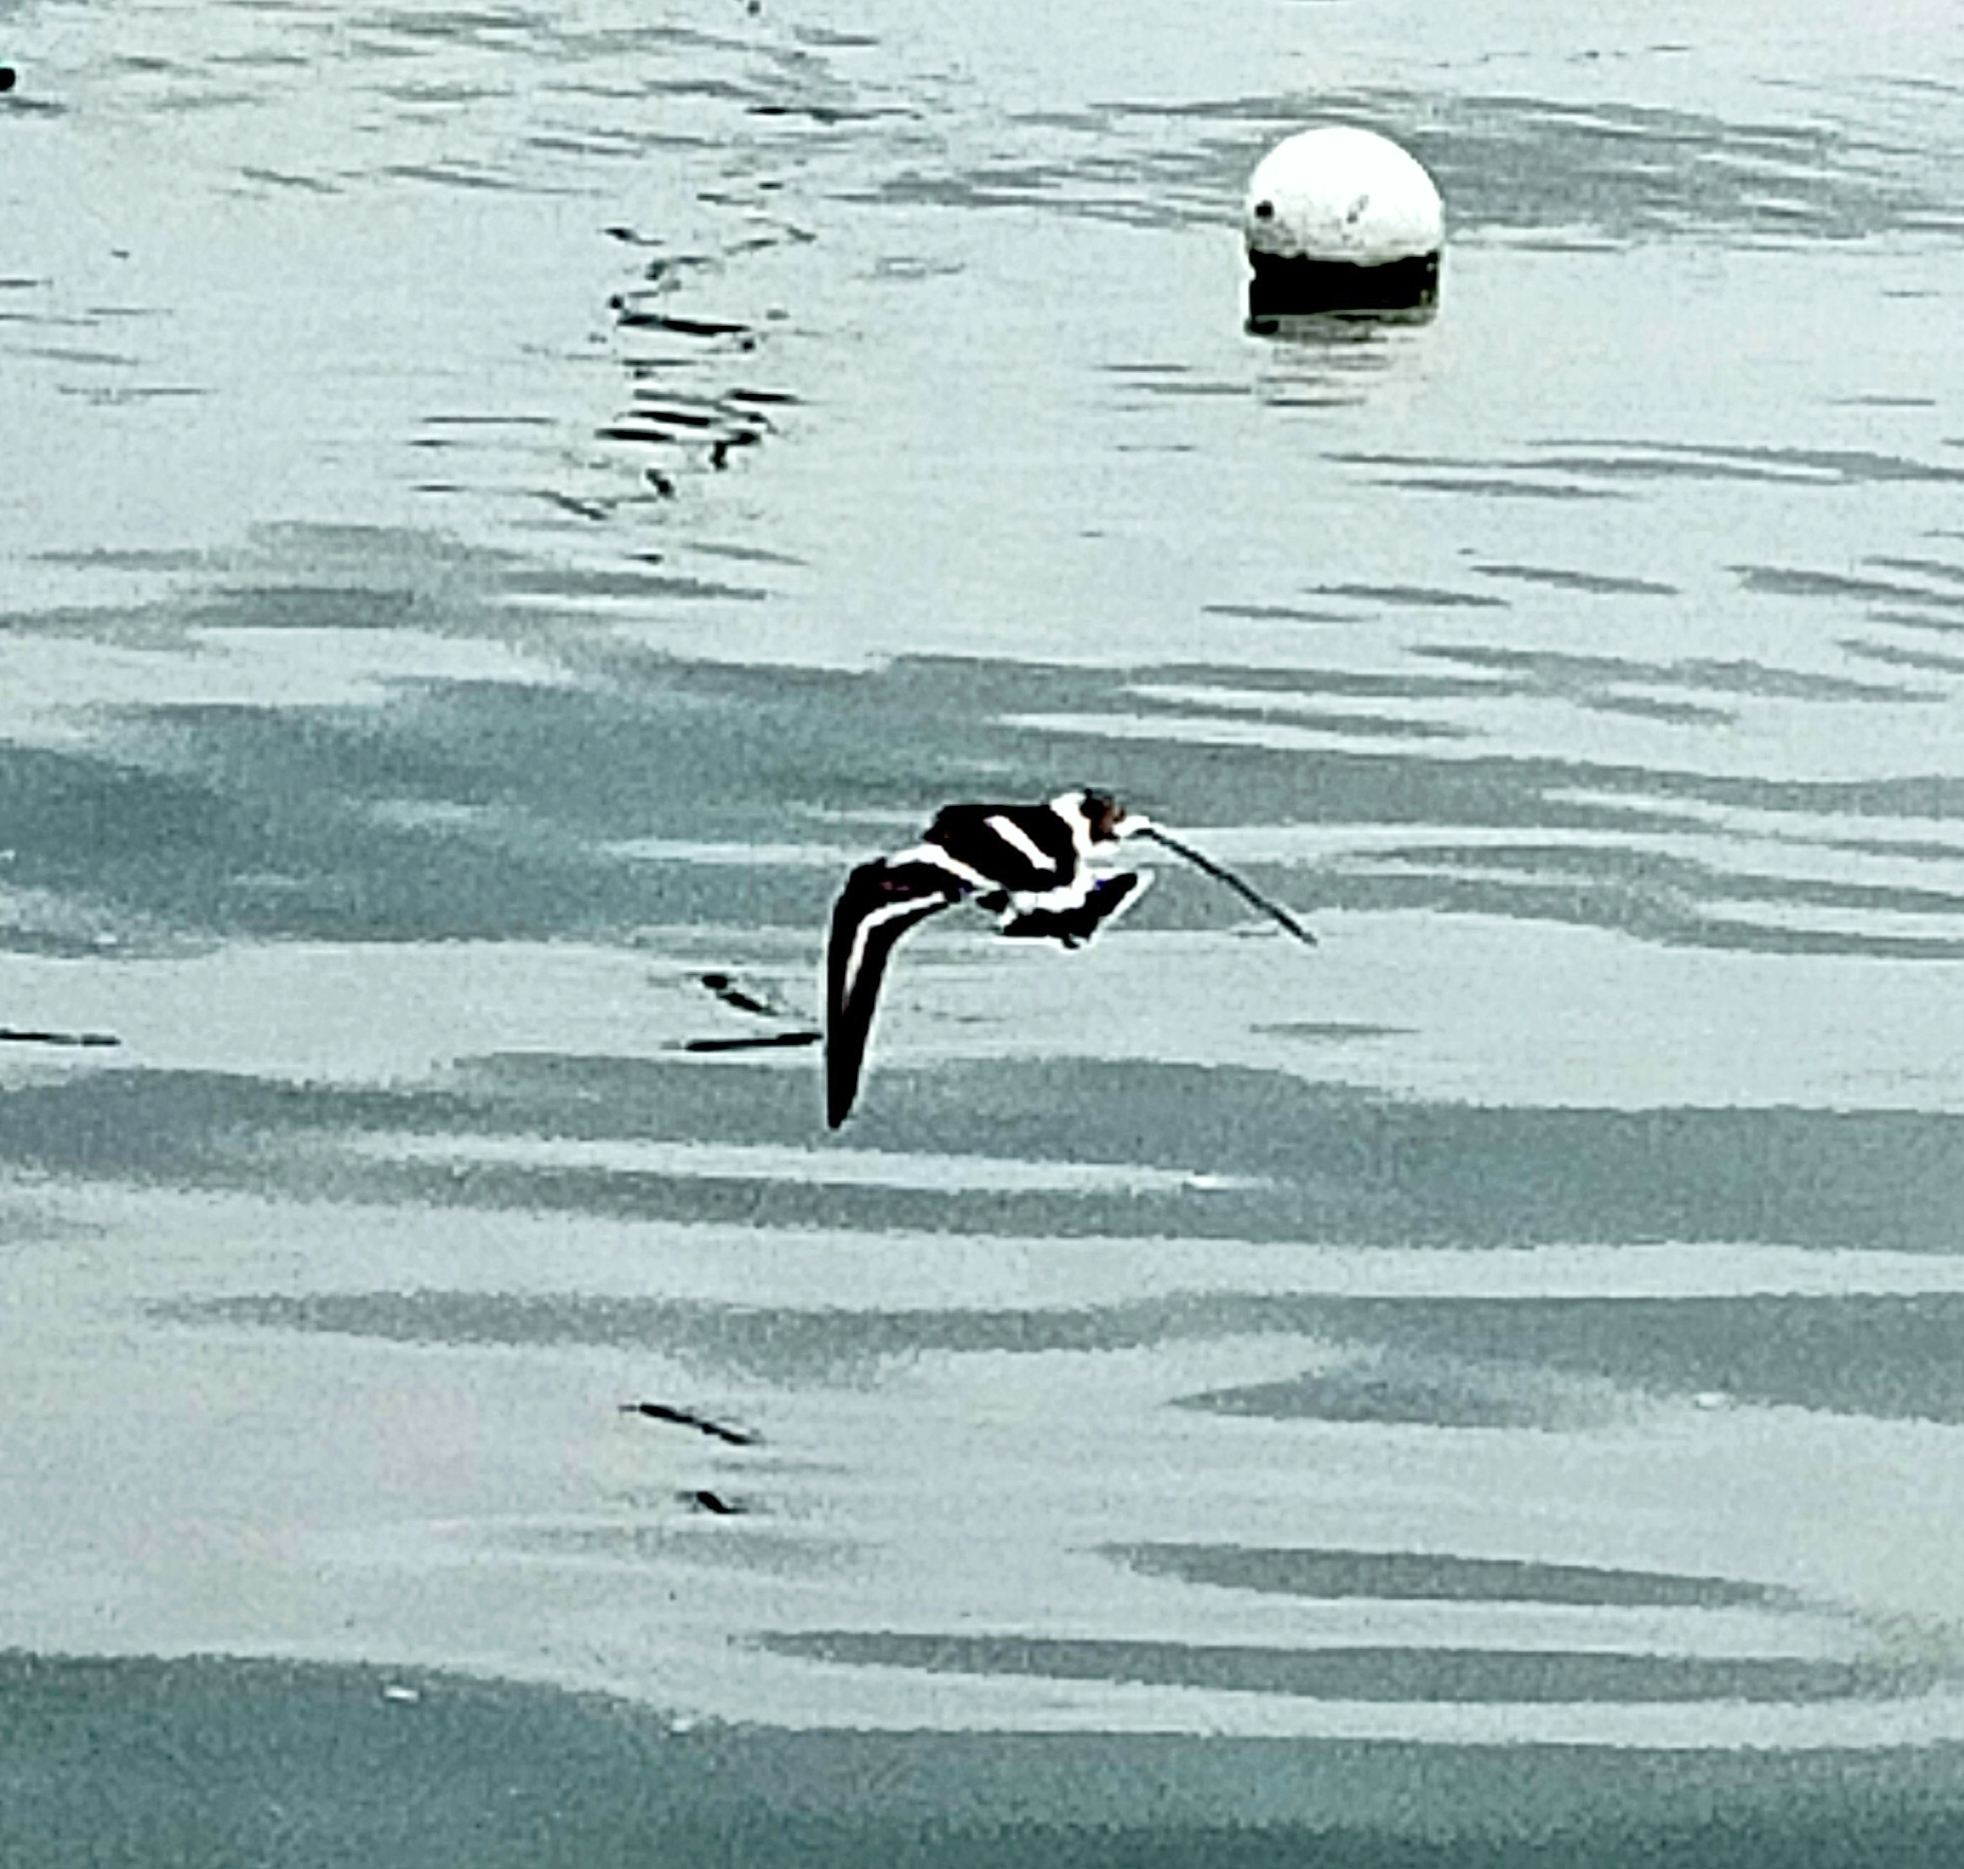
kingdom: Animalia
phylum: Chordata
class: Aves
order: Charadriiformes
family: Scolopacidae
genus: Arenaria
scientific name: Arenaria interpres
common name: Ruddy turnstone
